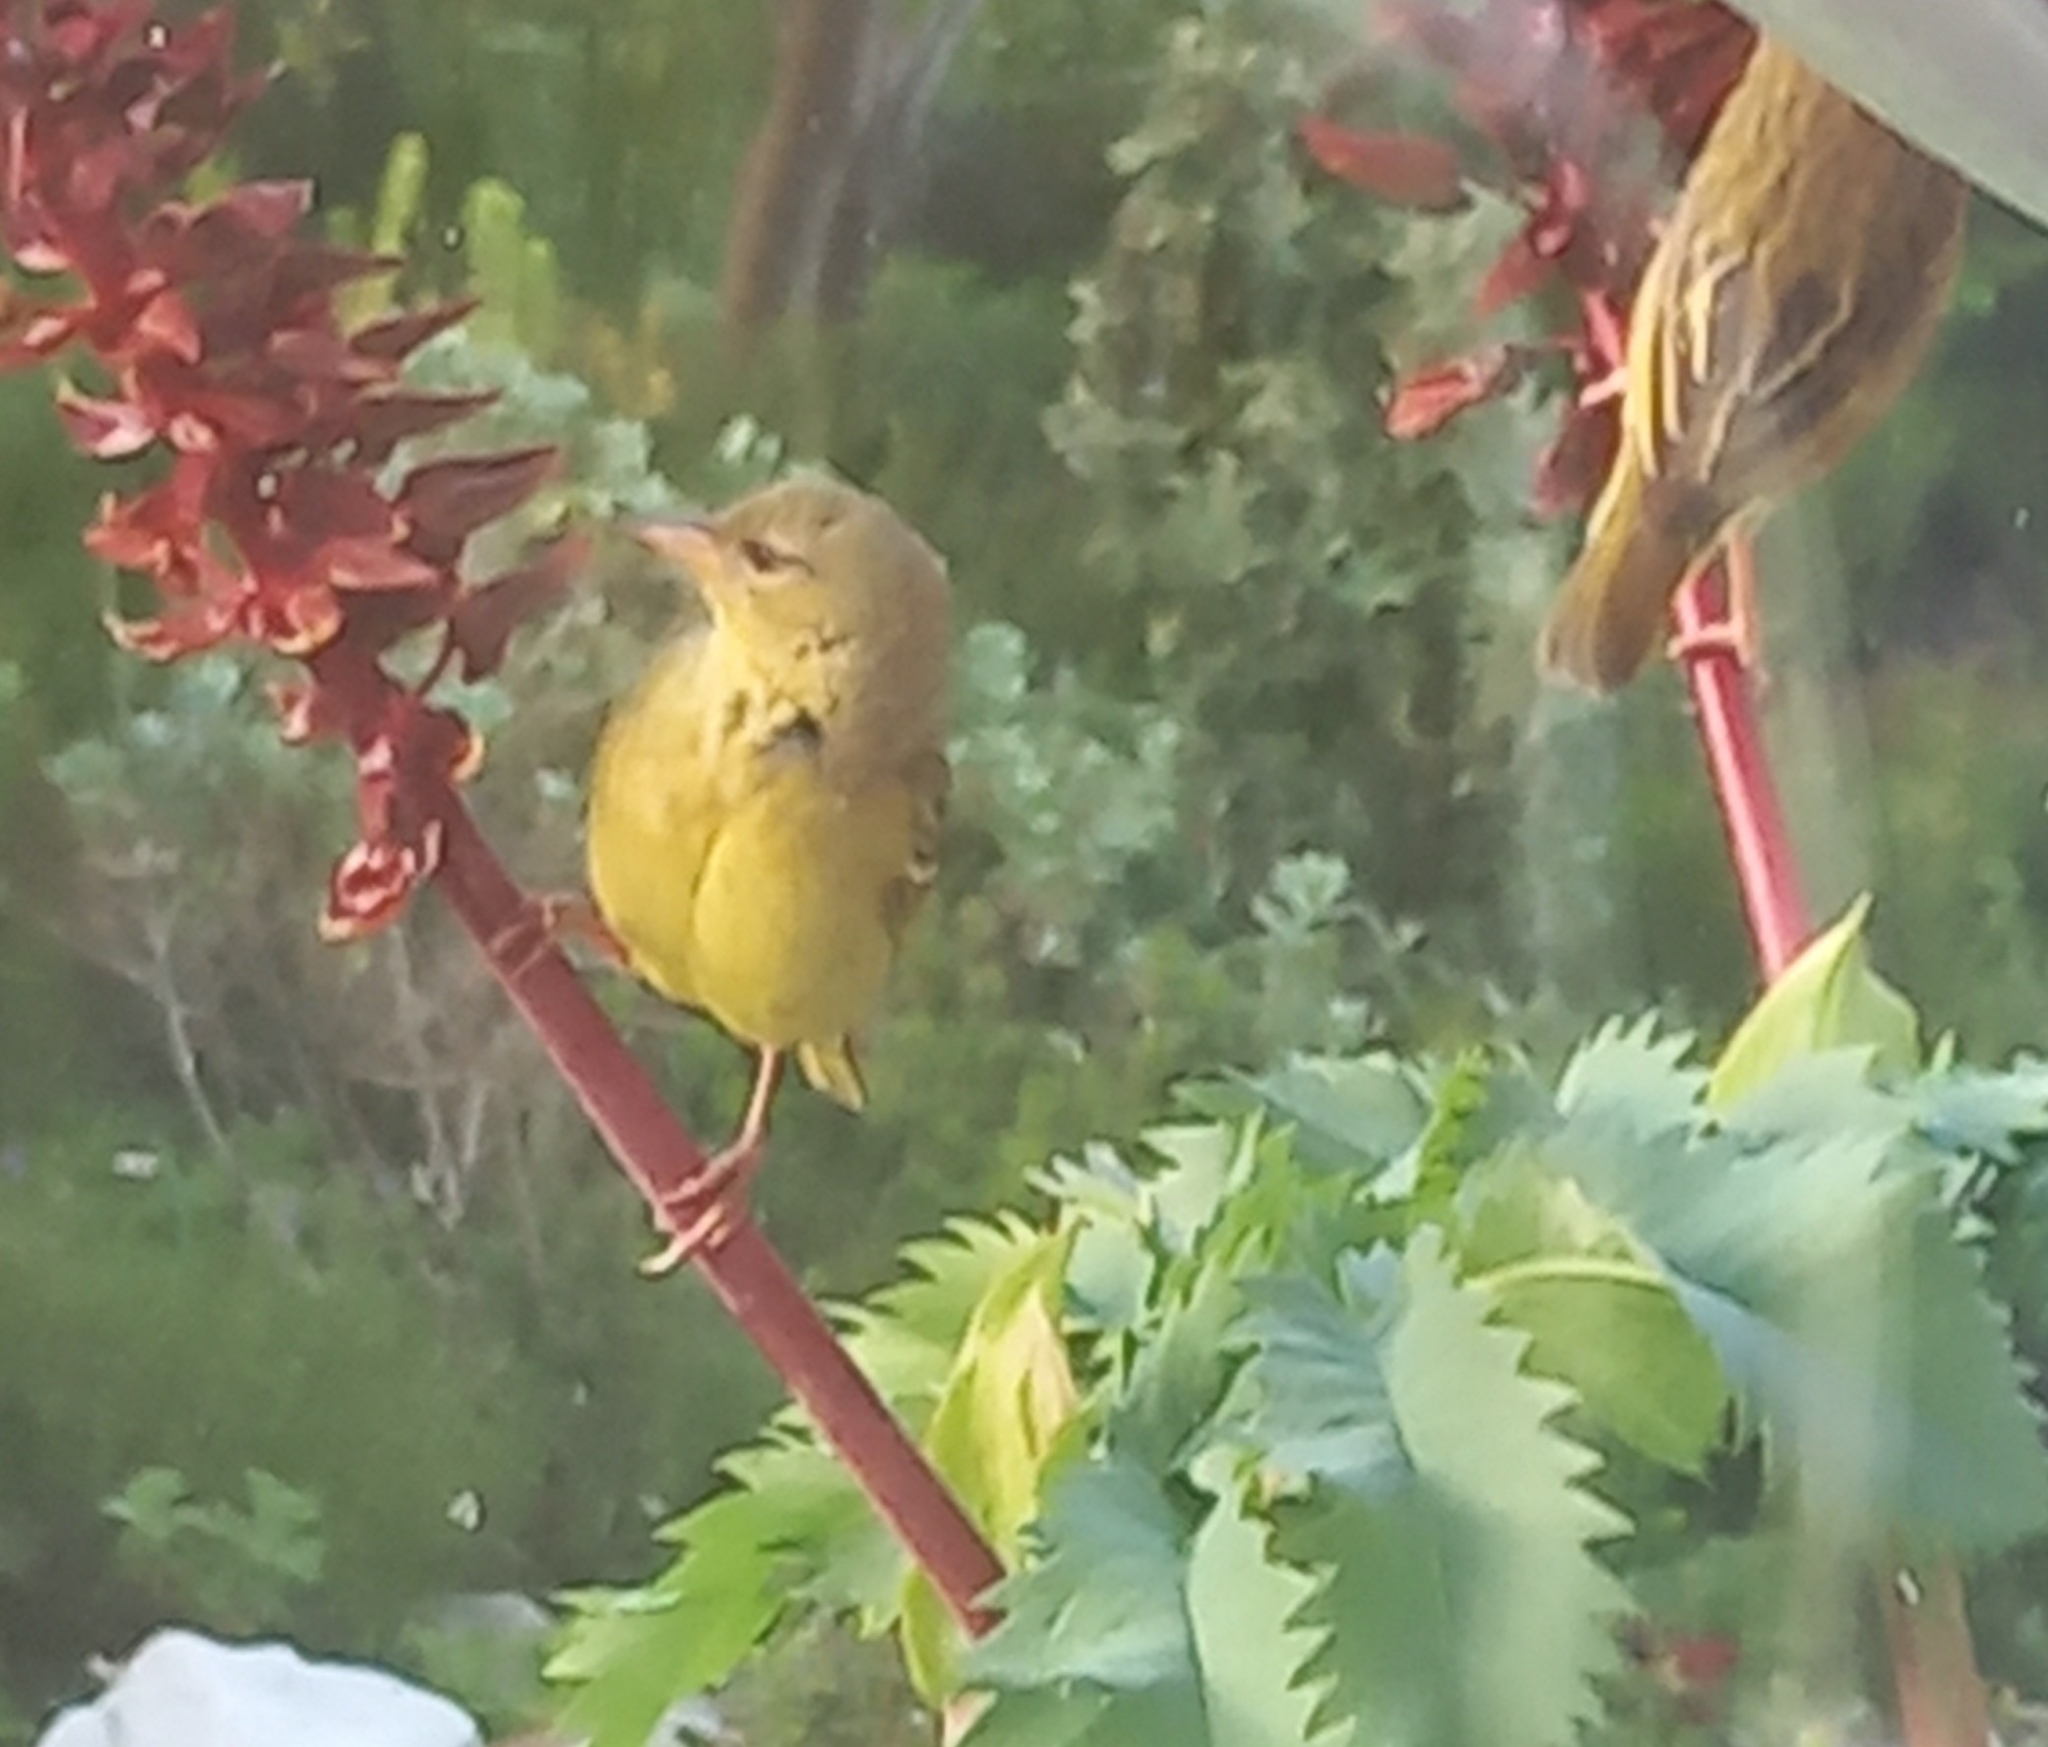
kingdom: Animalia
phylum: Chordata
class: Aves
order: Passeriformes
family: Ploceidae
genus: Ploceus
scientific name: Ploceus capensis
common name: Cape weaver
